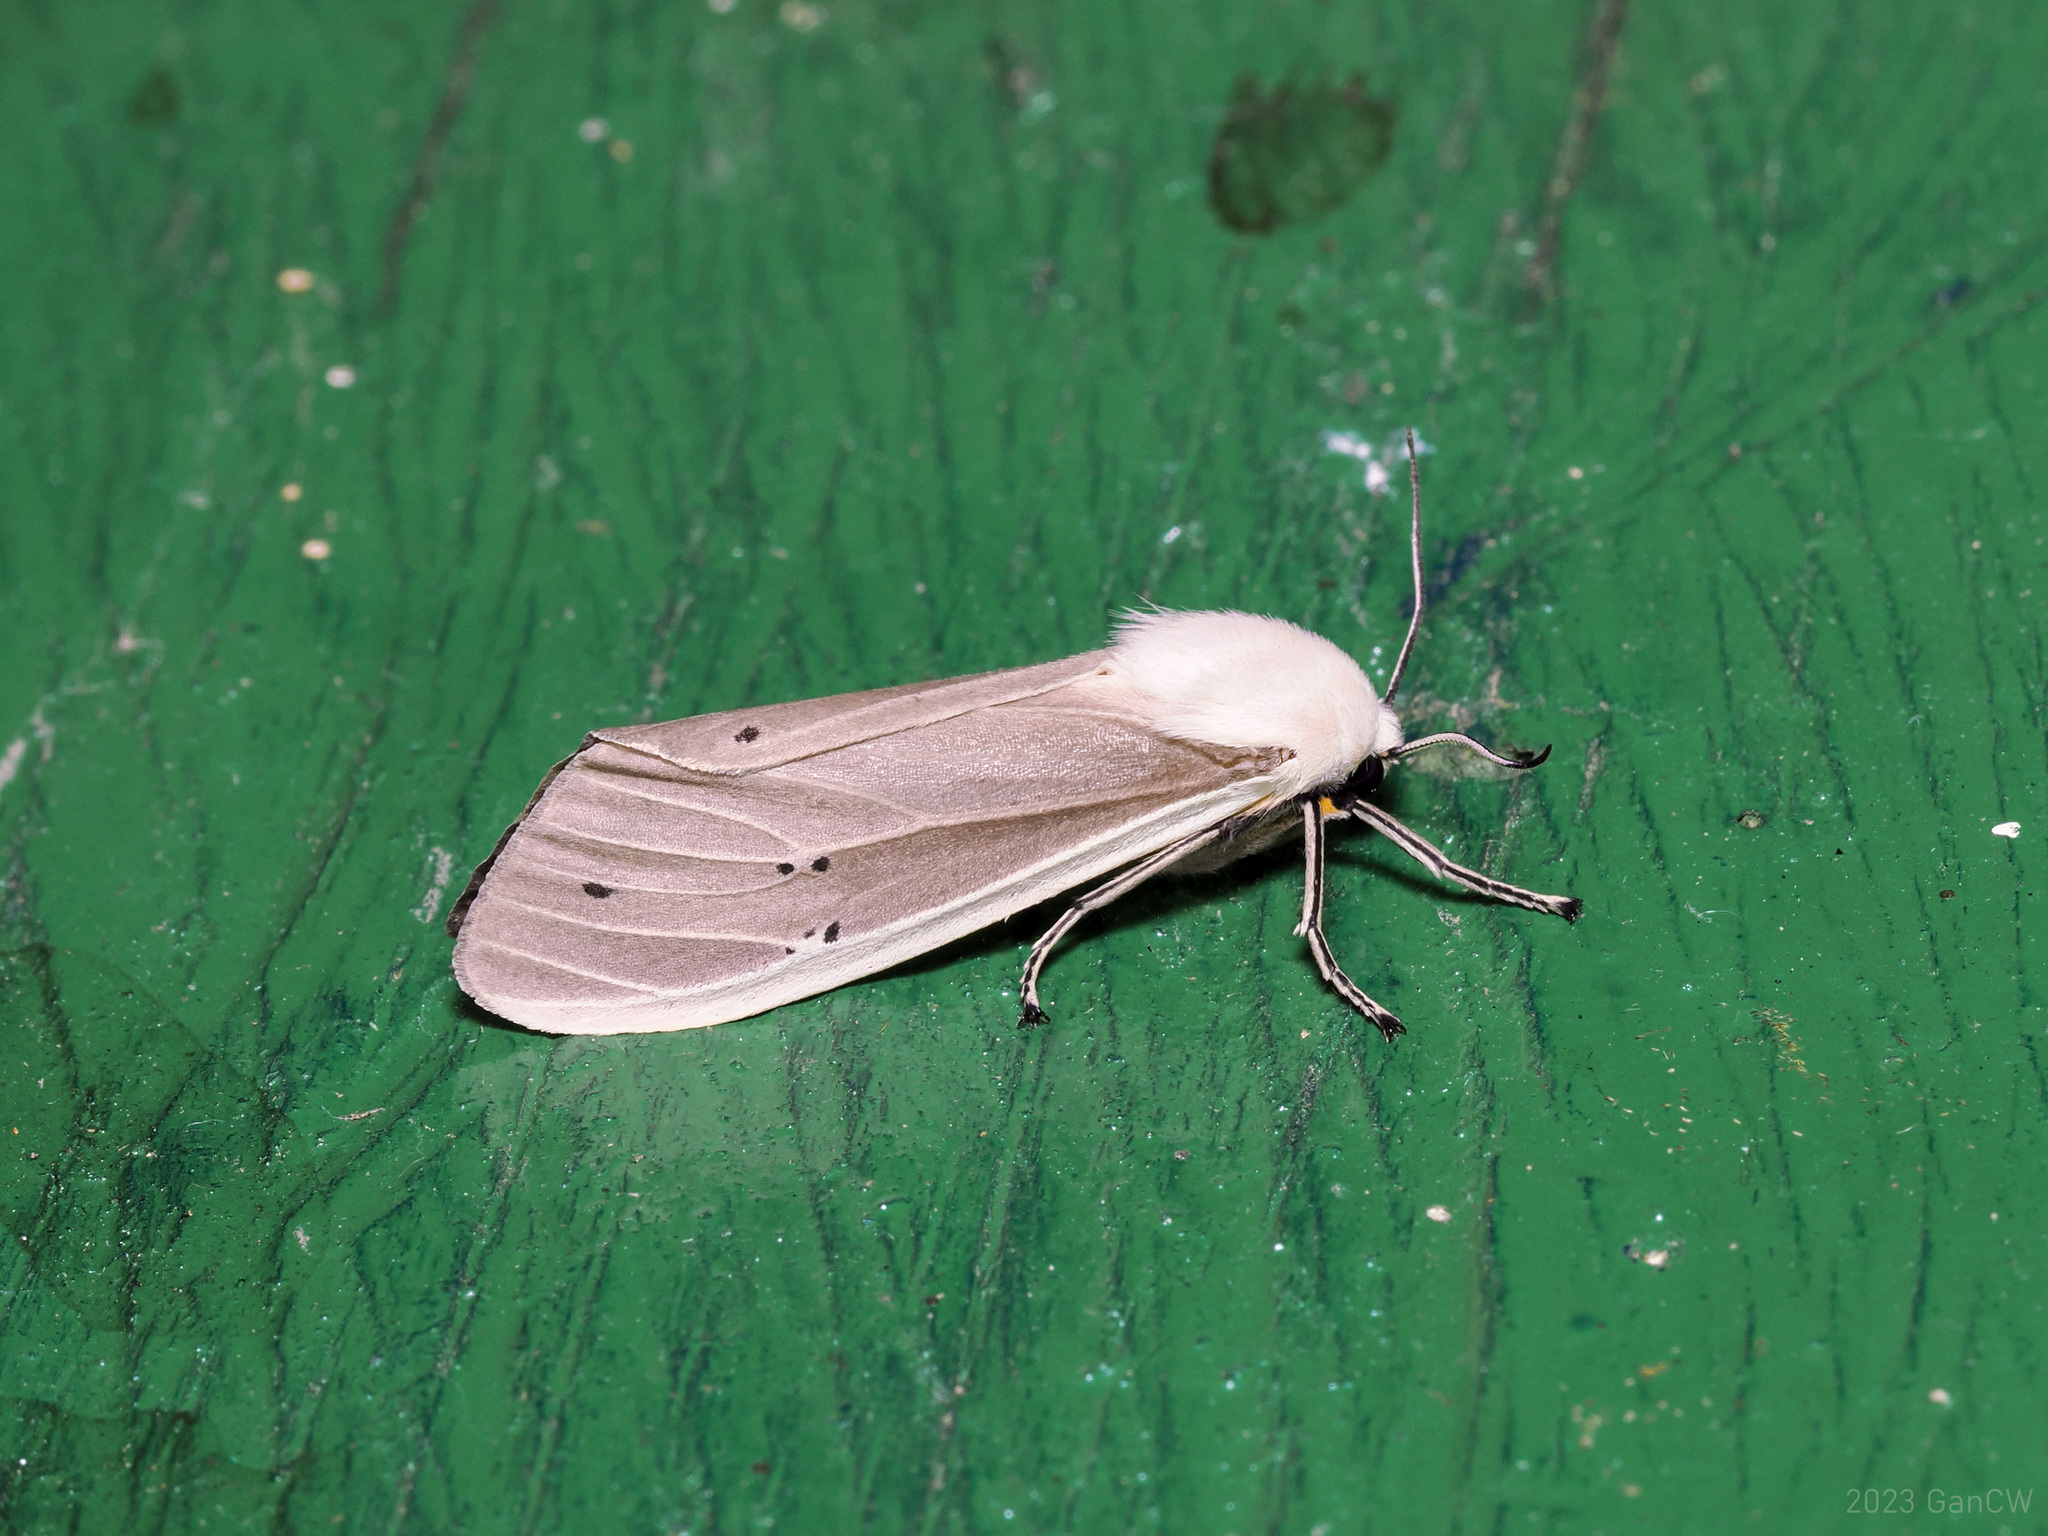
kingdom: Animalia
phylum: Arthropoda
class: Insecta
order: Lepidoptera
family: Erebidae
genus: Creatonotos
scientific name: Creatonotos transiens
